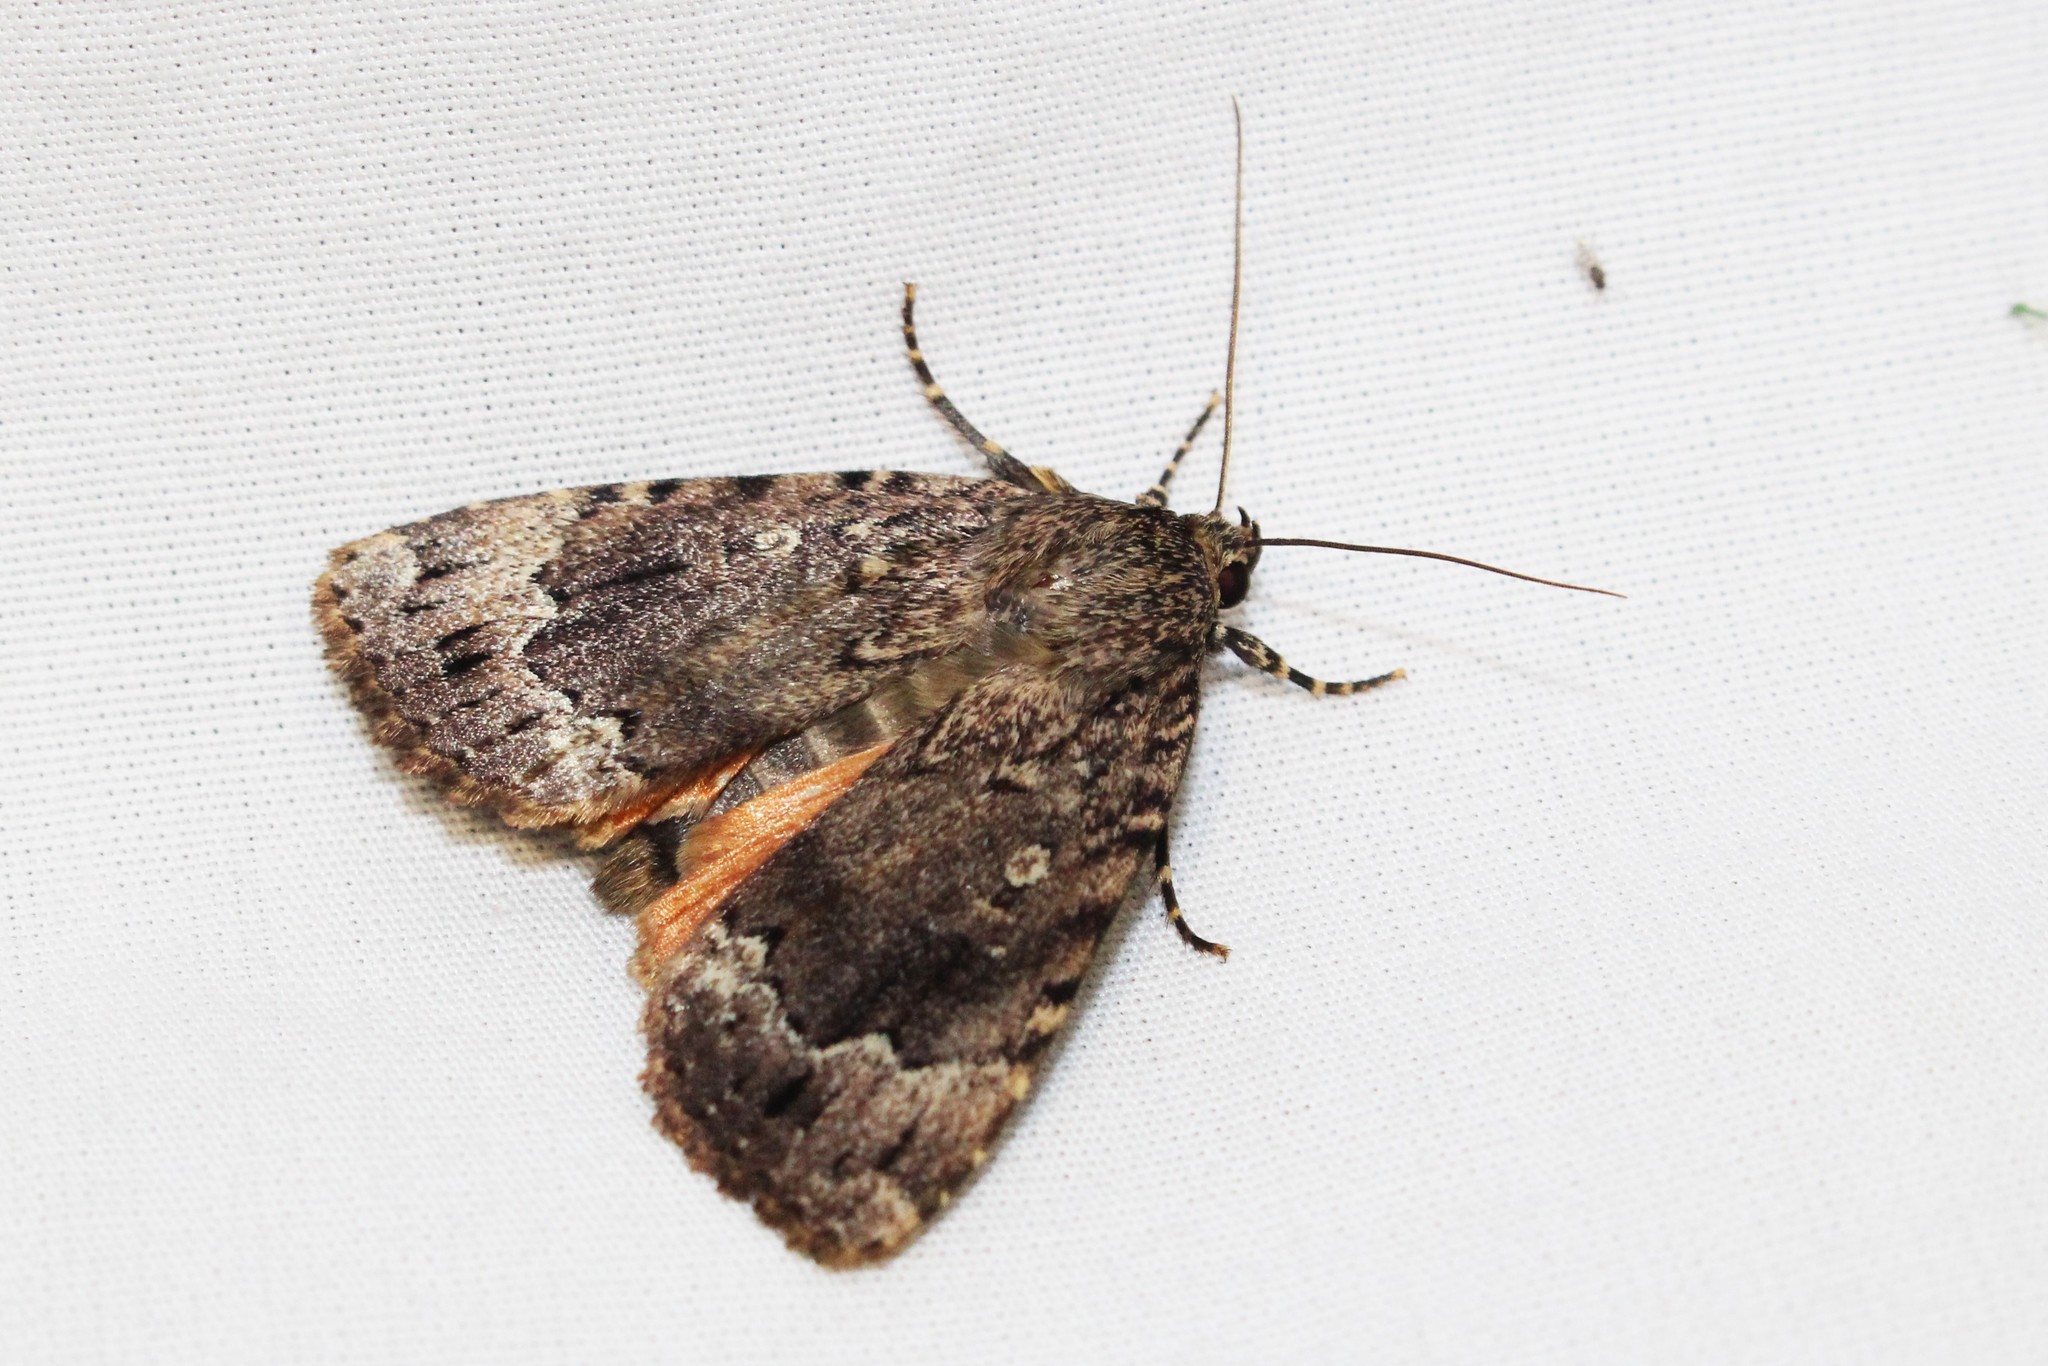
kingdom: Animalia
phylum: Arthropoda
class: Insecta
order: Lepidoptera
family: Noctuidae
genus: Amphipyra
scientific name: Amphipyra pyramidoides
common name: American copper underwing
